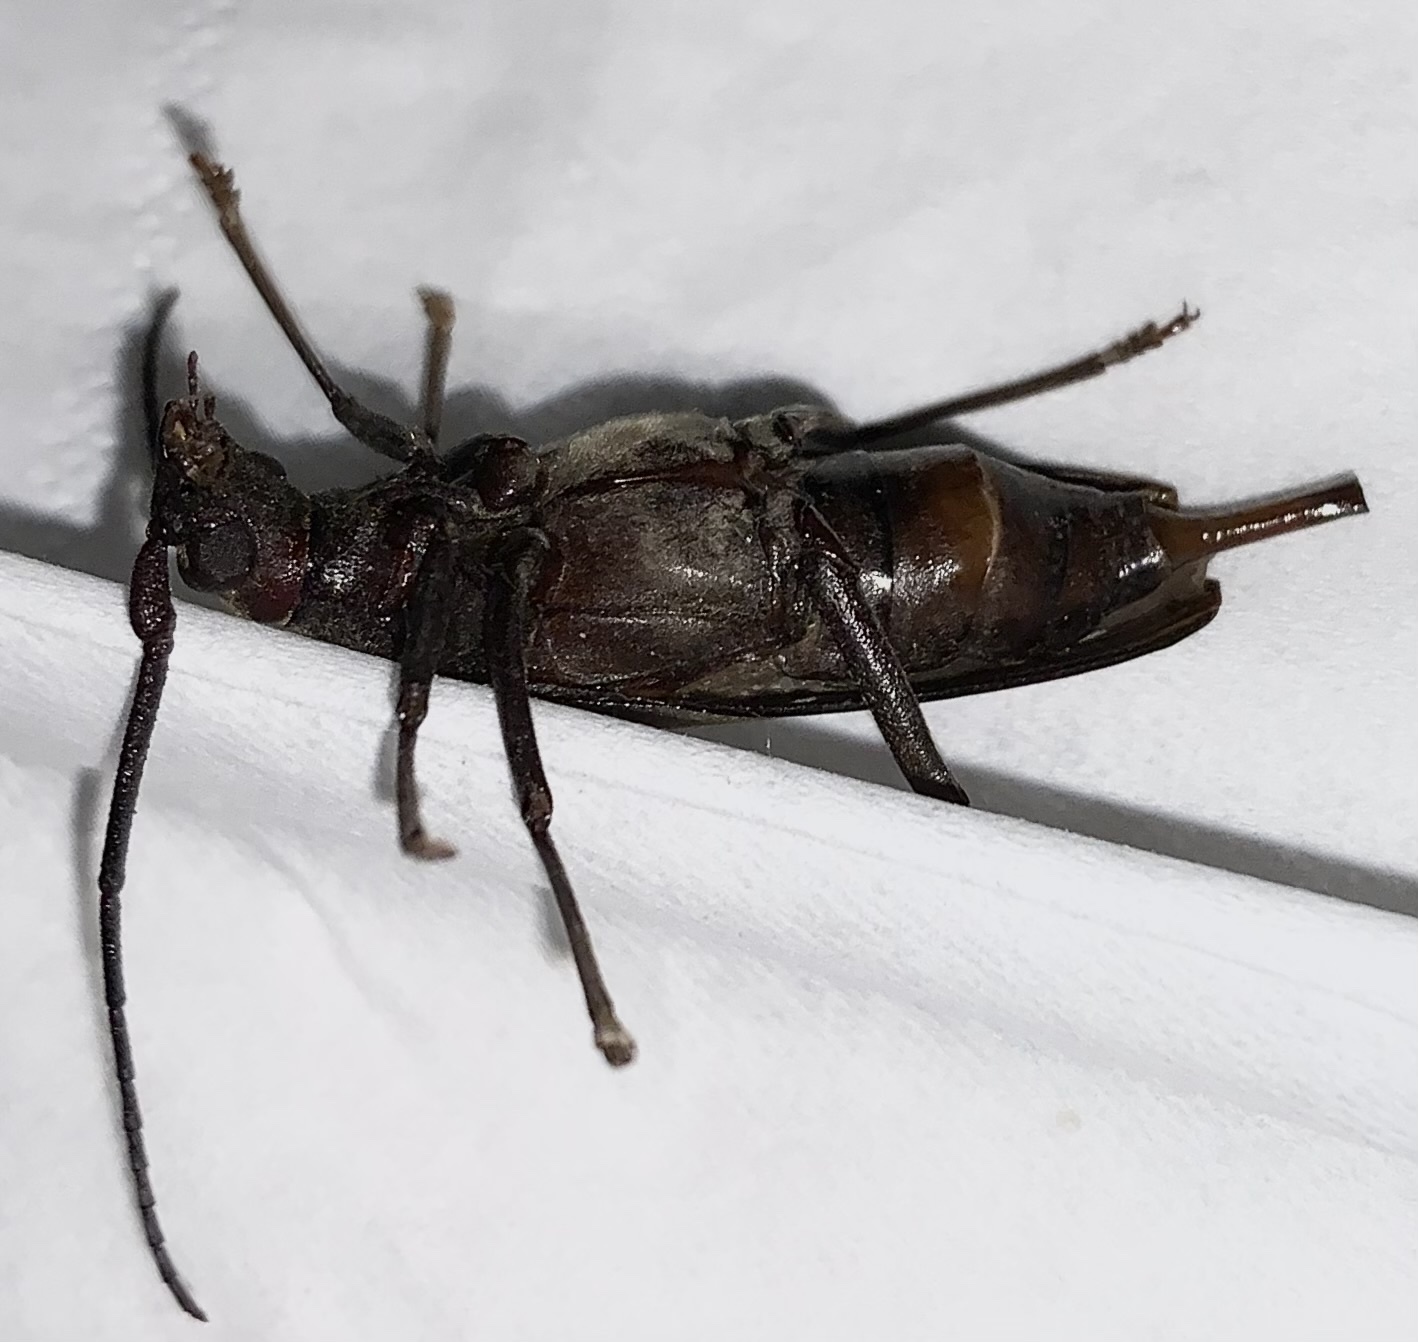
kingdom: Animalia
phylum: Arthropoda
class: Insecta
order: Coleoptera
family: Cerambycidae
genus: Aegosoma
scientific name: Aegosoma scabricorne
